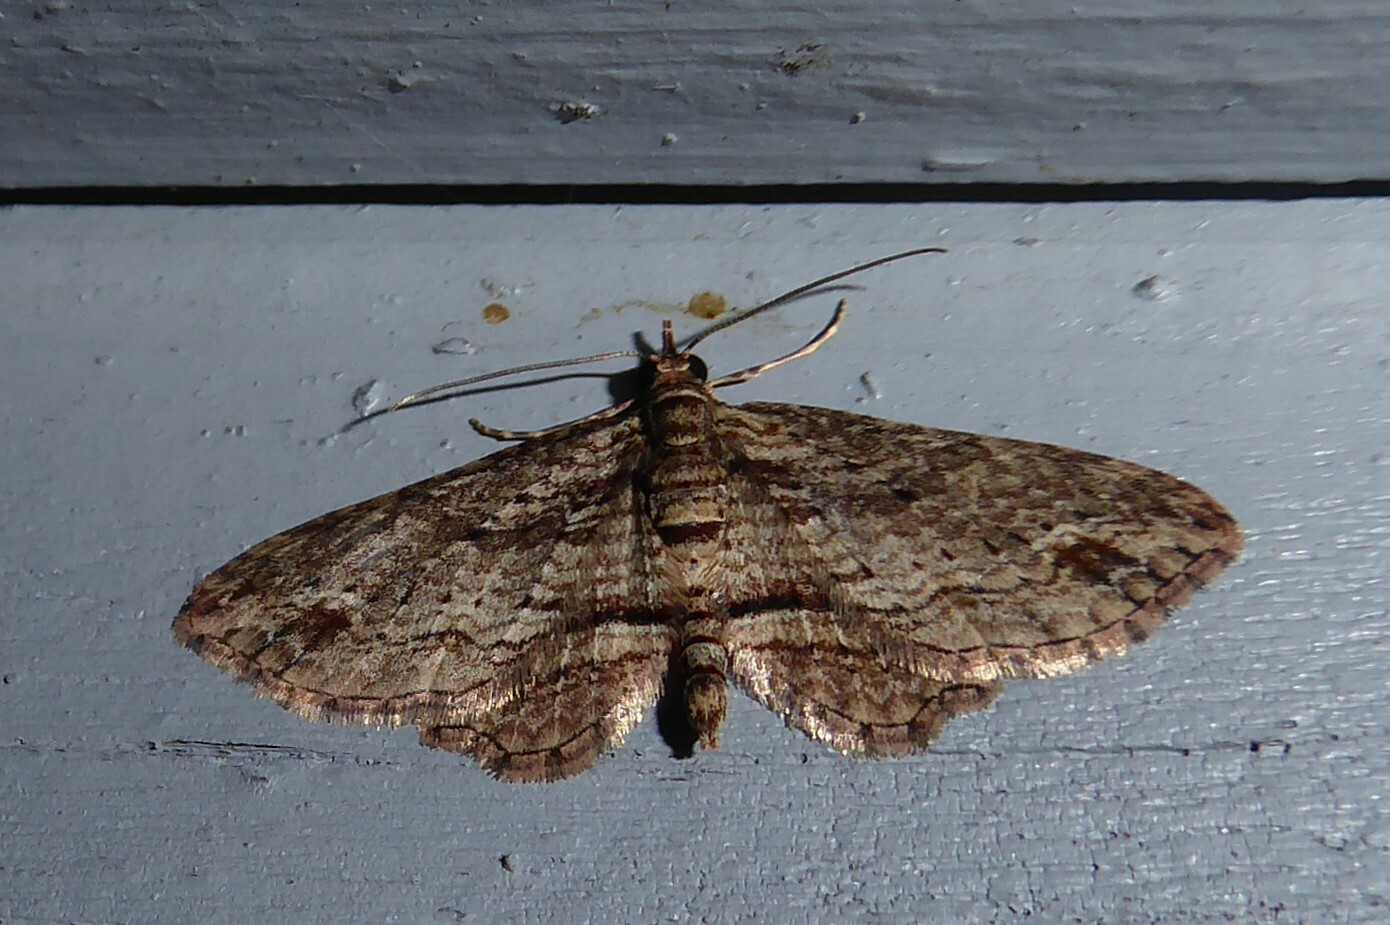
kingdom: Animalia
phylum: Arthropoda
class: Insecta
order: Lepidoptera
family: Geometridae
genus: Chloroclystis
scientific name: Chloroclystis filata
